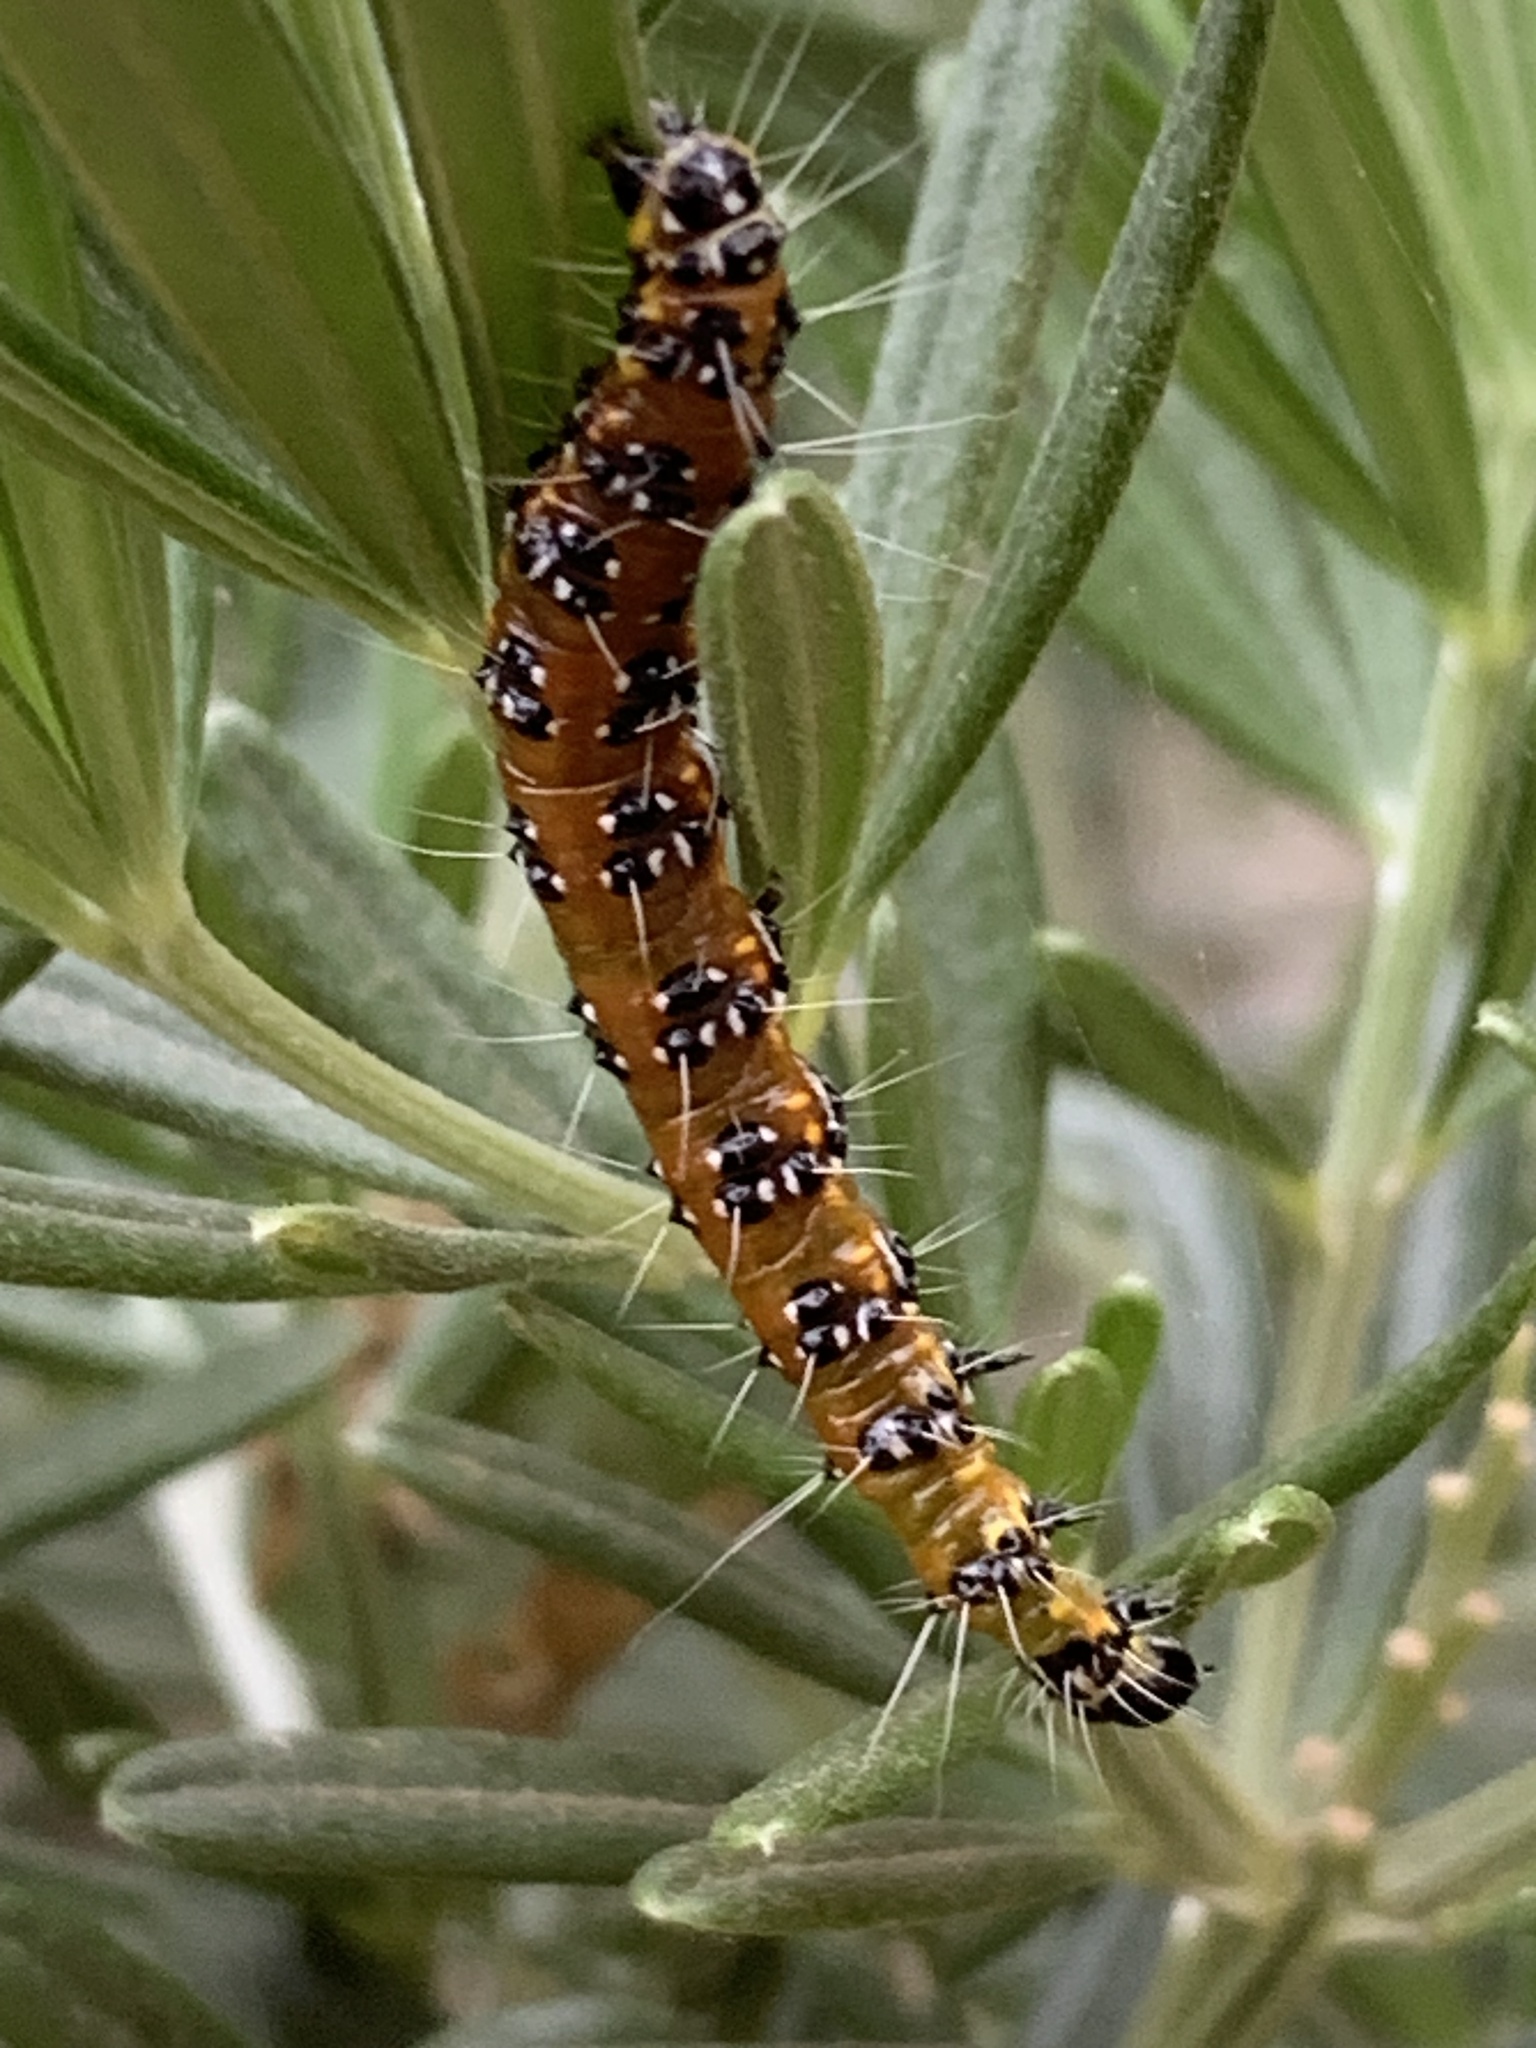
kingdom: Animalia
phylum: Arthropoda
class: Insecta
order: Lepidoptera
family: Crambidae
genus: Uresiphita
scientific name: Uresiphita reversalis
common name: Genista broom moth
